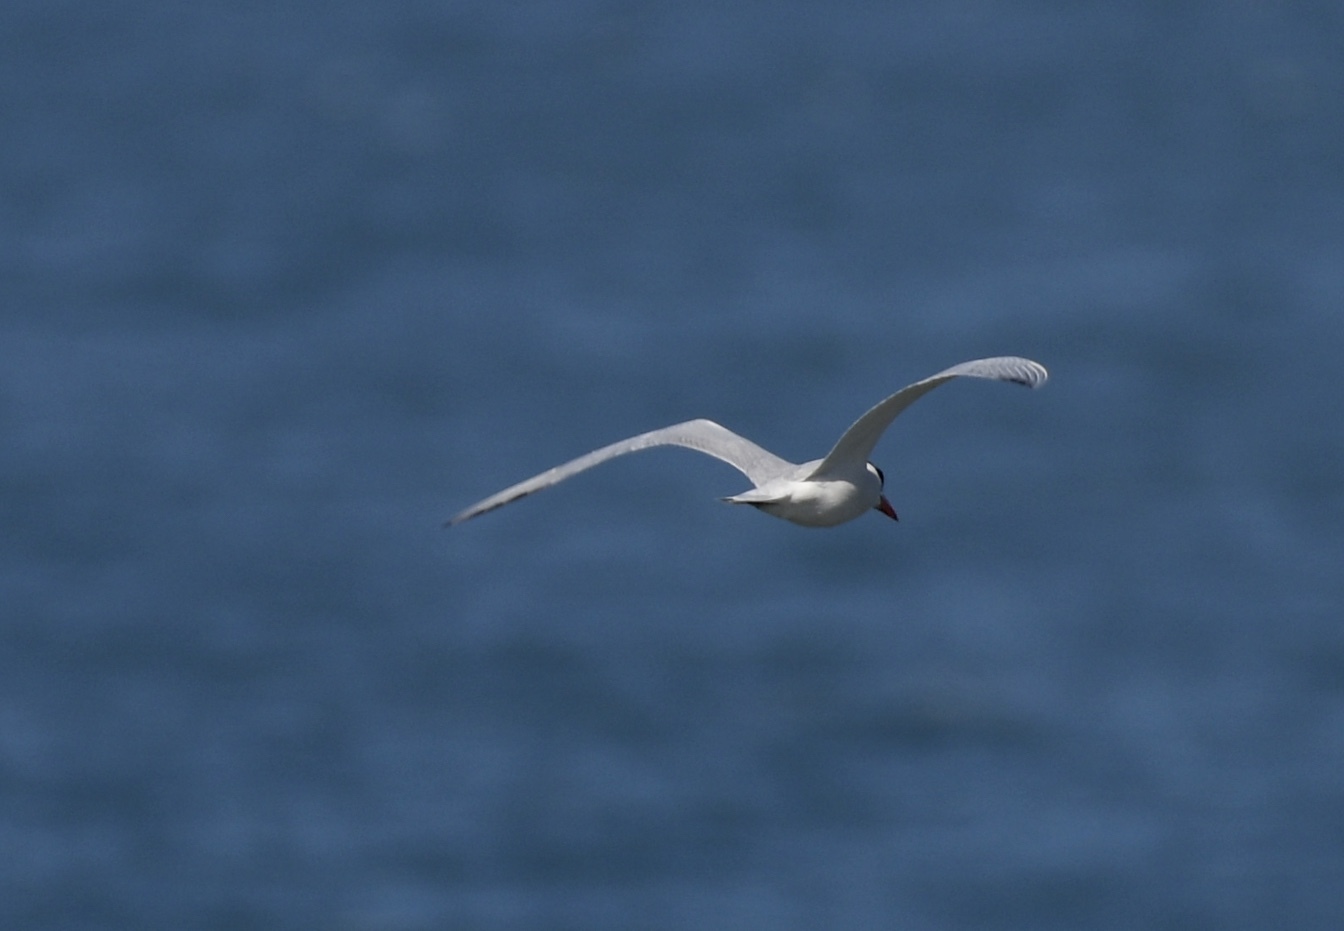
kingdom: Animalia
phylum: Chordata
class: Aves
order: Charadriiformes
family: Laridae
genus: Hydroprogne
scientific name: Hydroprogne caspia
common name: Caspian tern
